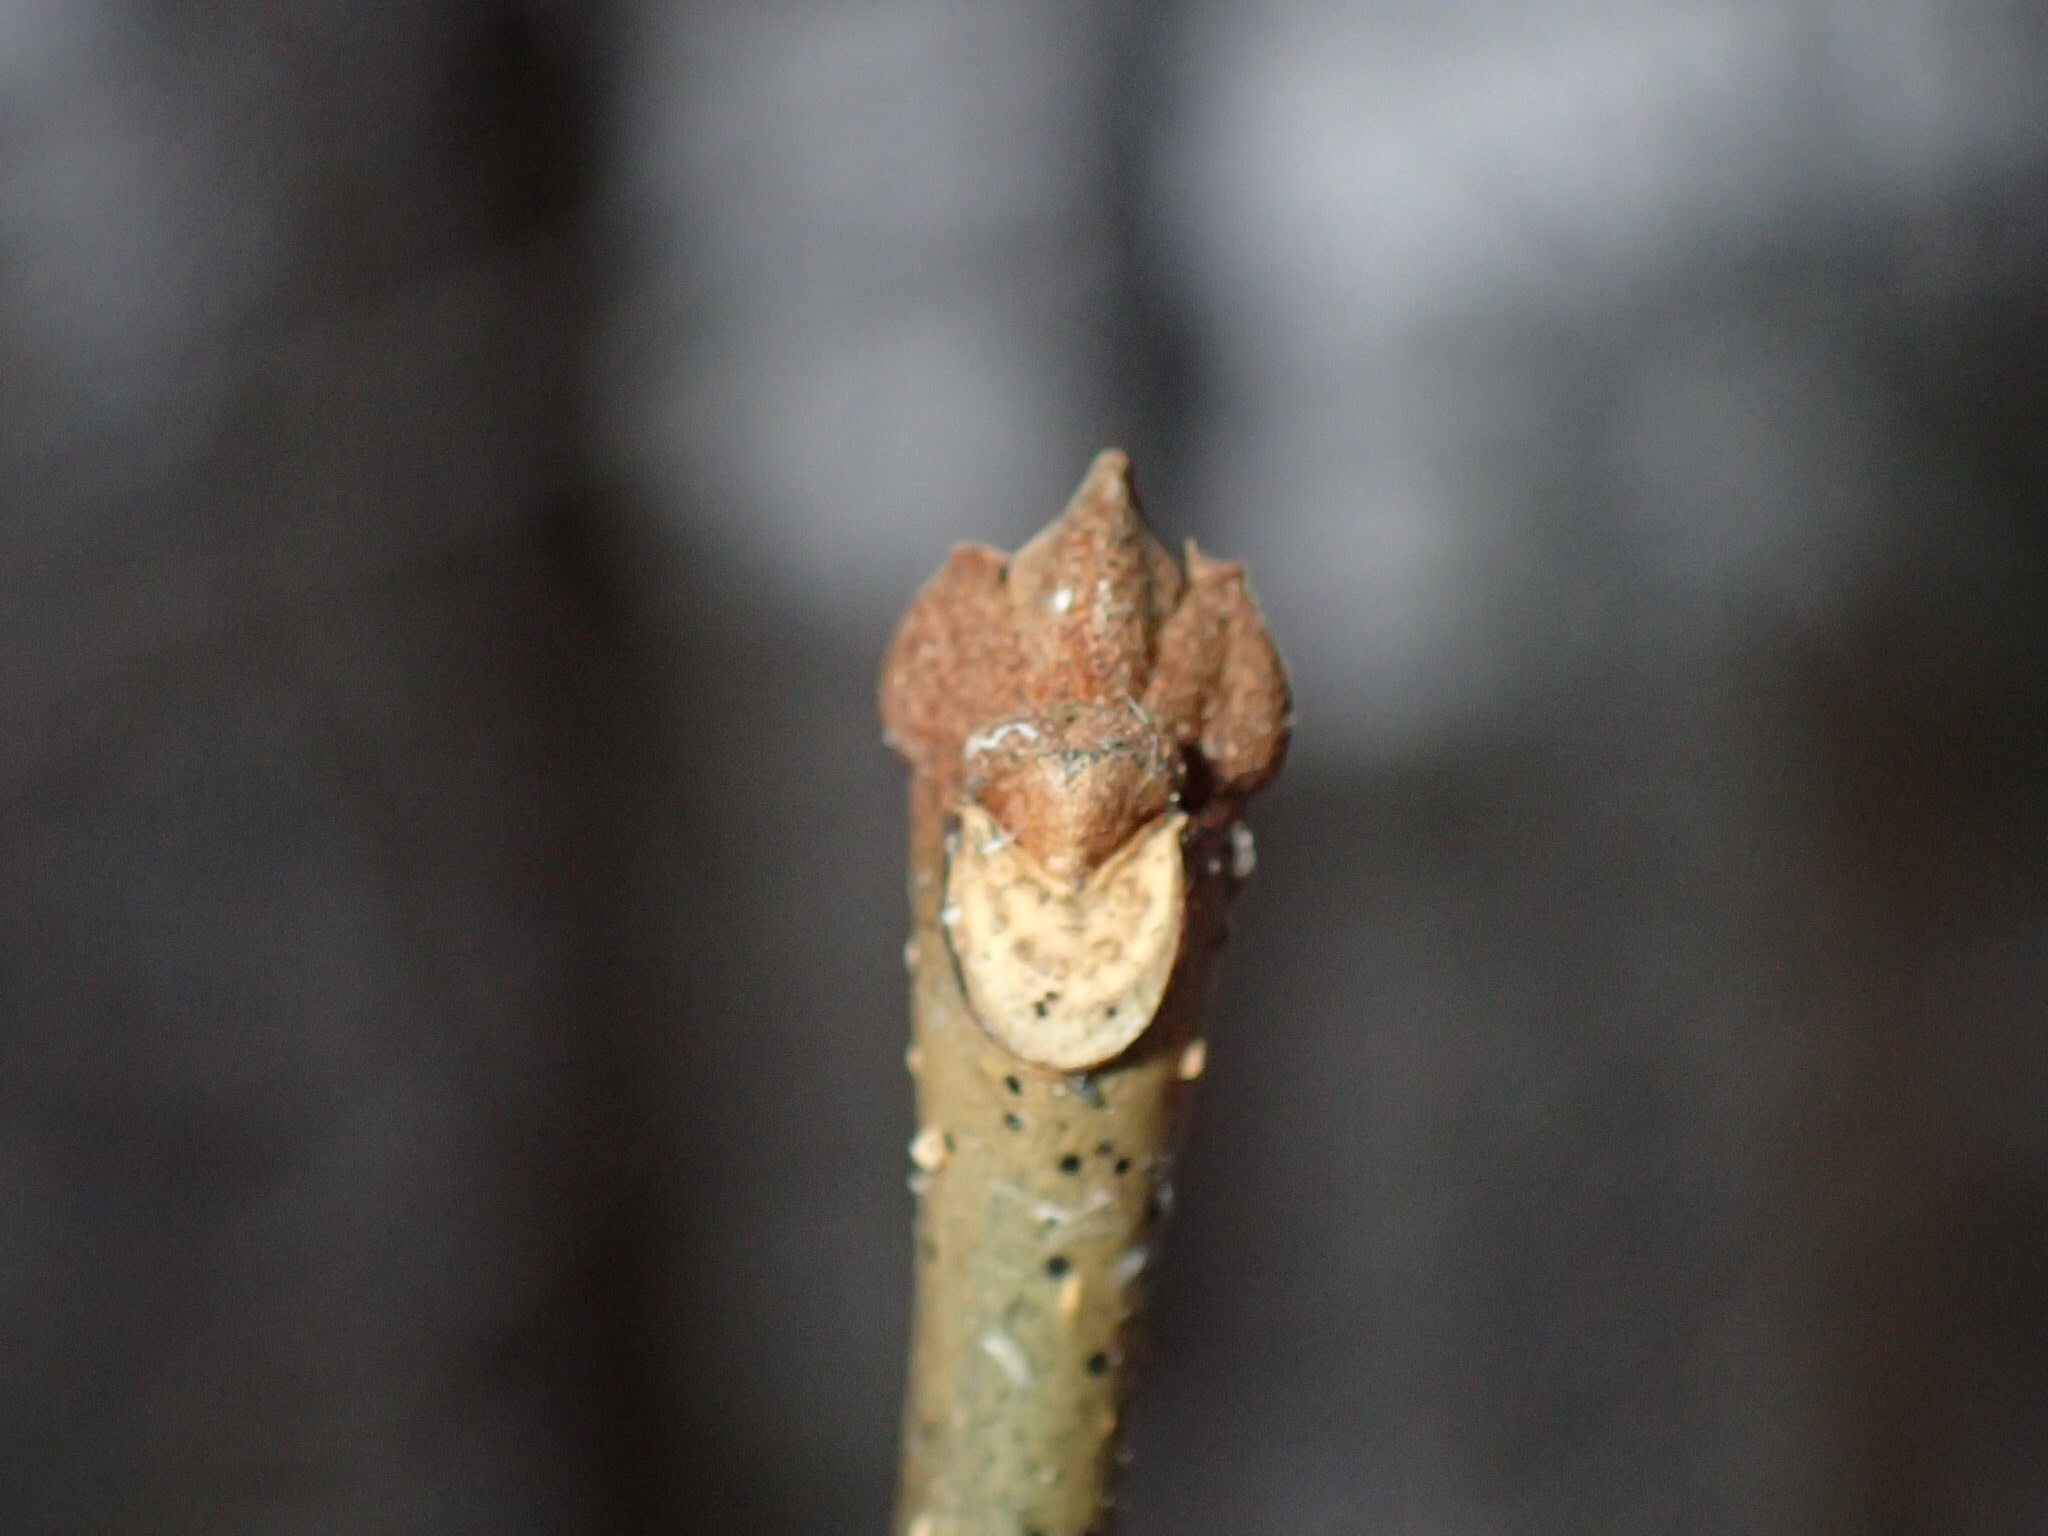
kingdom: Plantae
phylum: Tracheophyta
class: Magnoliopsida
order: Lamiales
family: Oleaceae
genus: Fraxinus
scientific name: Fraxinus americana
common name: White ash
